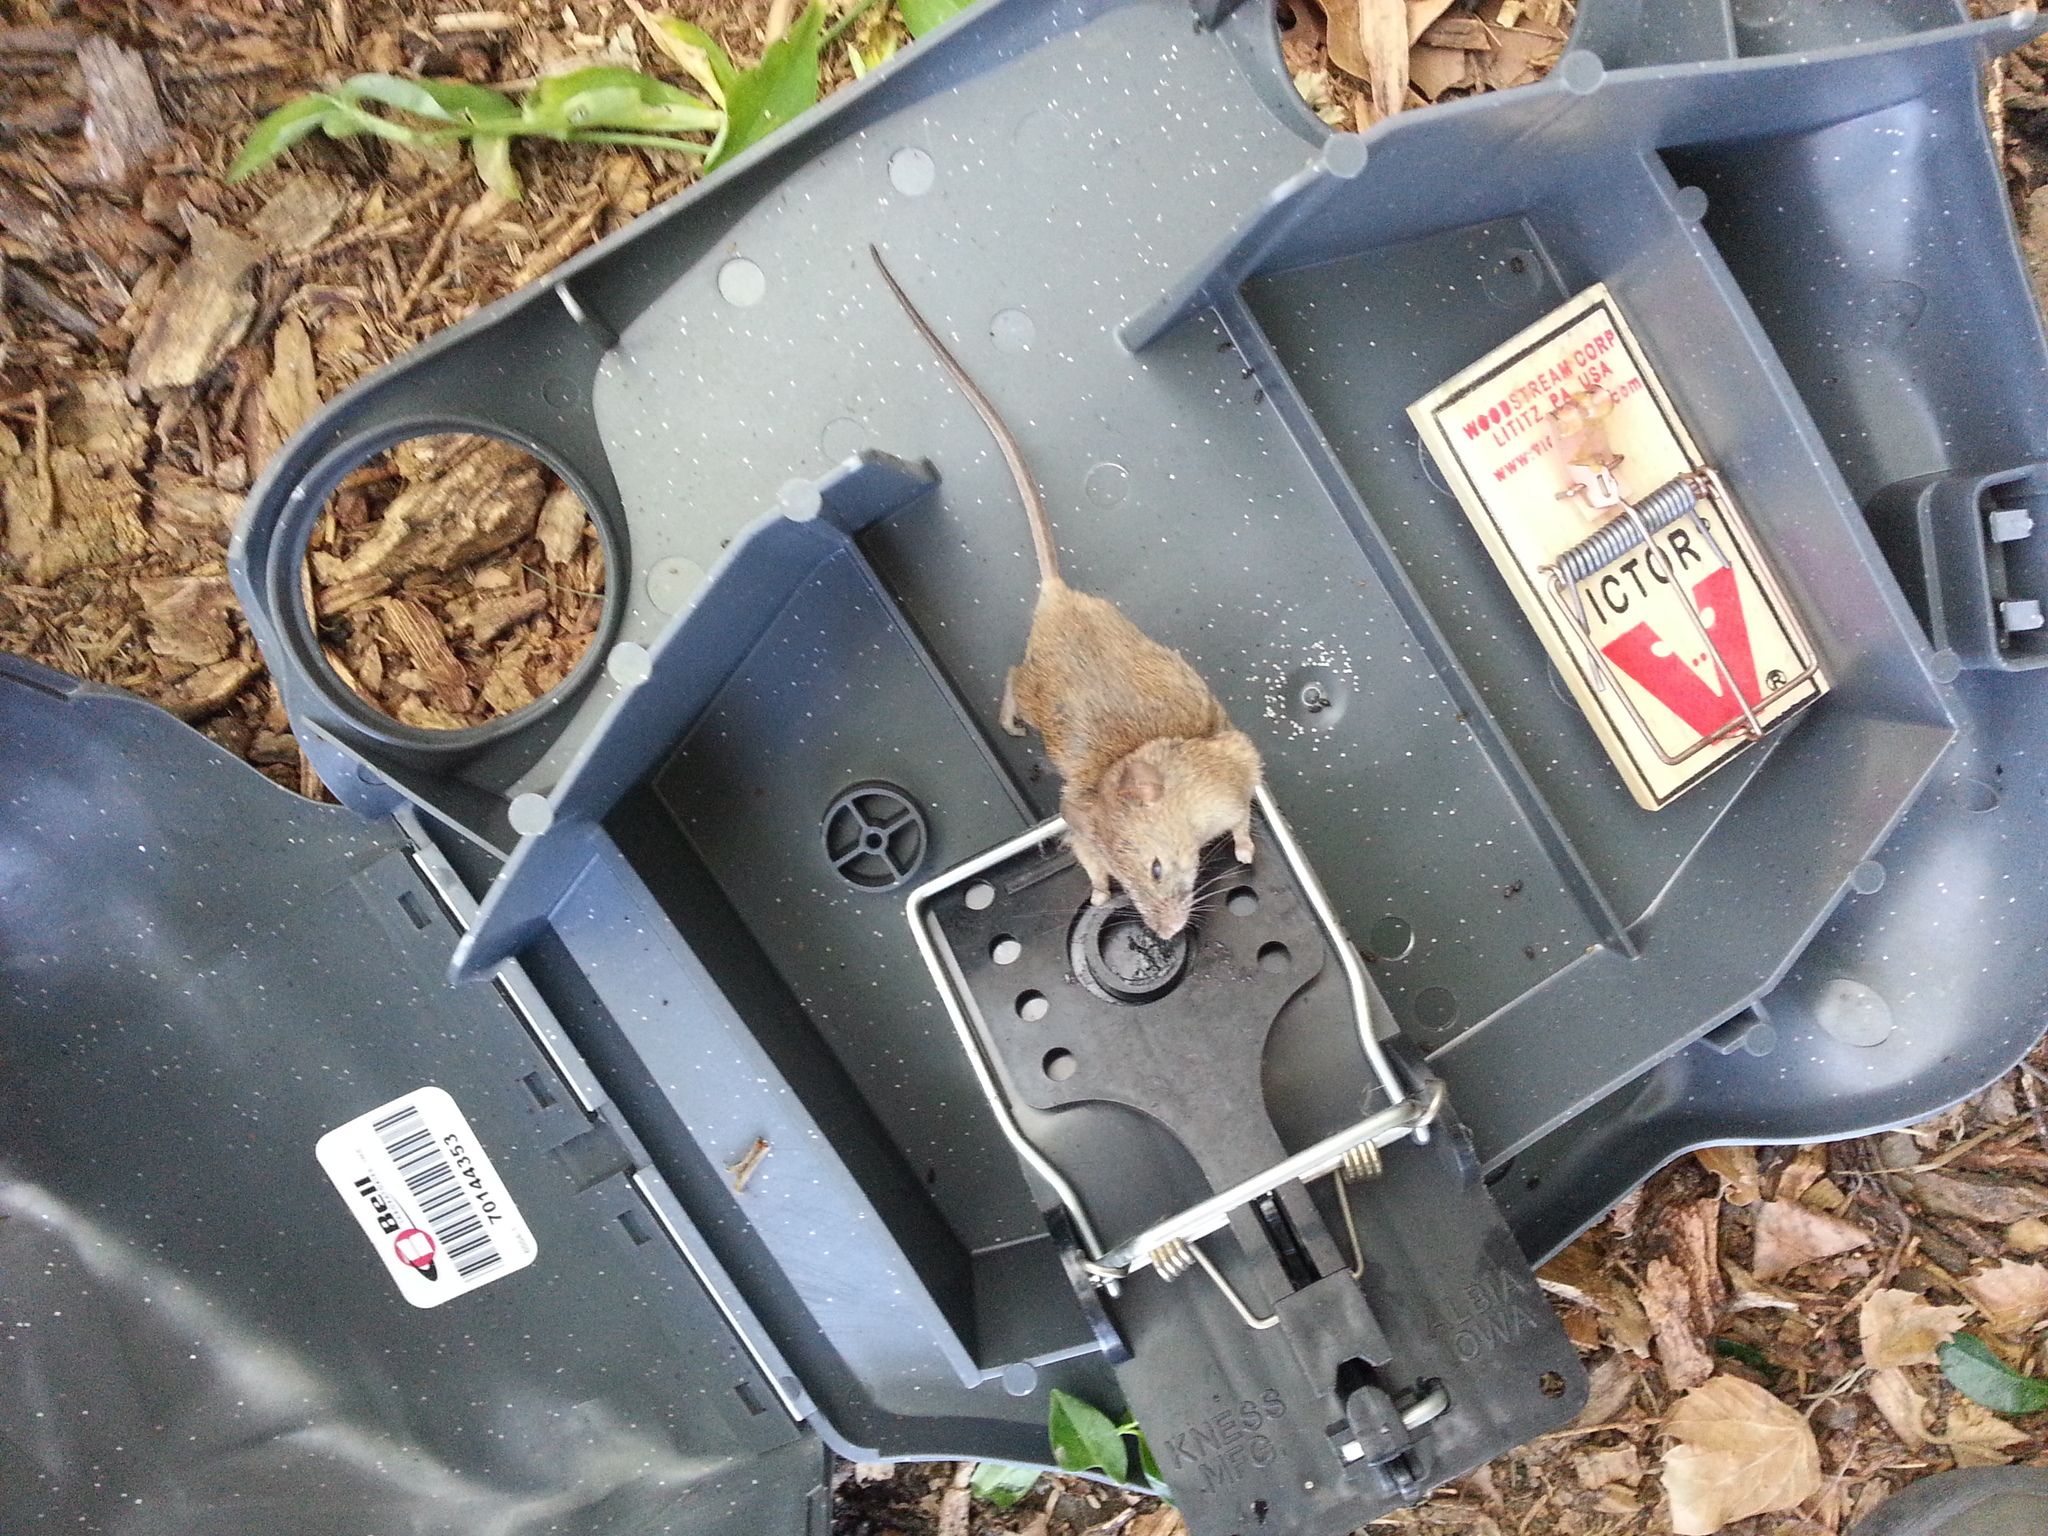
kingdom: Animalia
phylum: Chordata
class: Mammalia
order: Rodentia
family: Muridae
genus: Rattus
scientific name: Rattus norvegicus
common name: Brown rat
